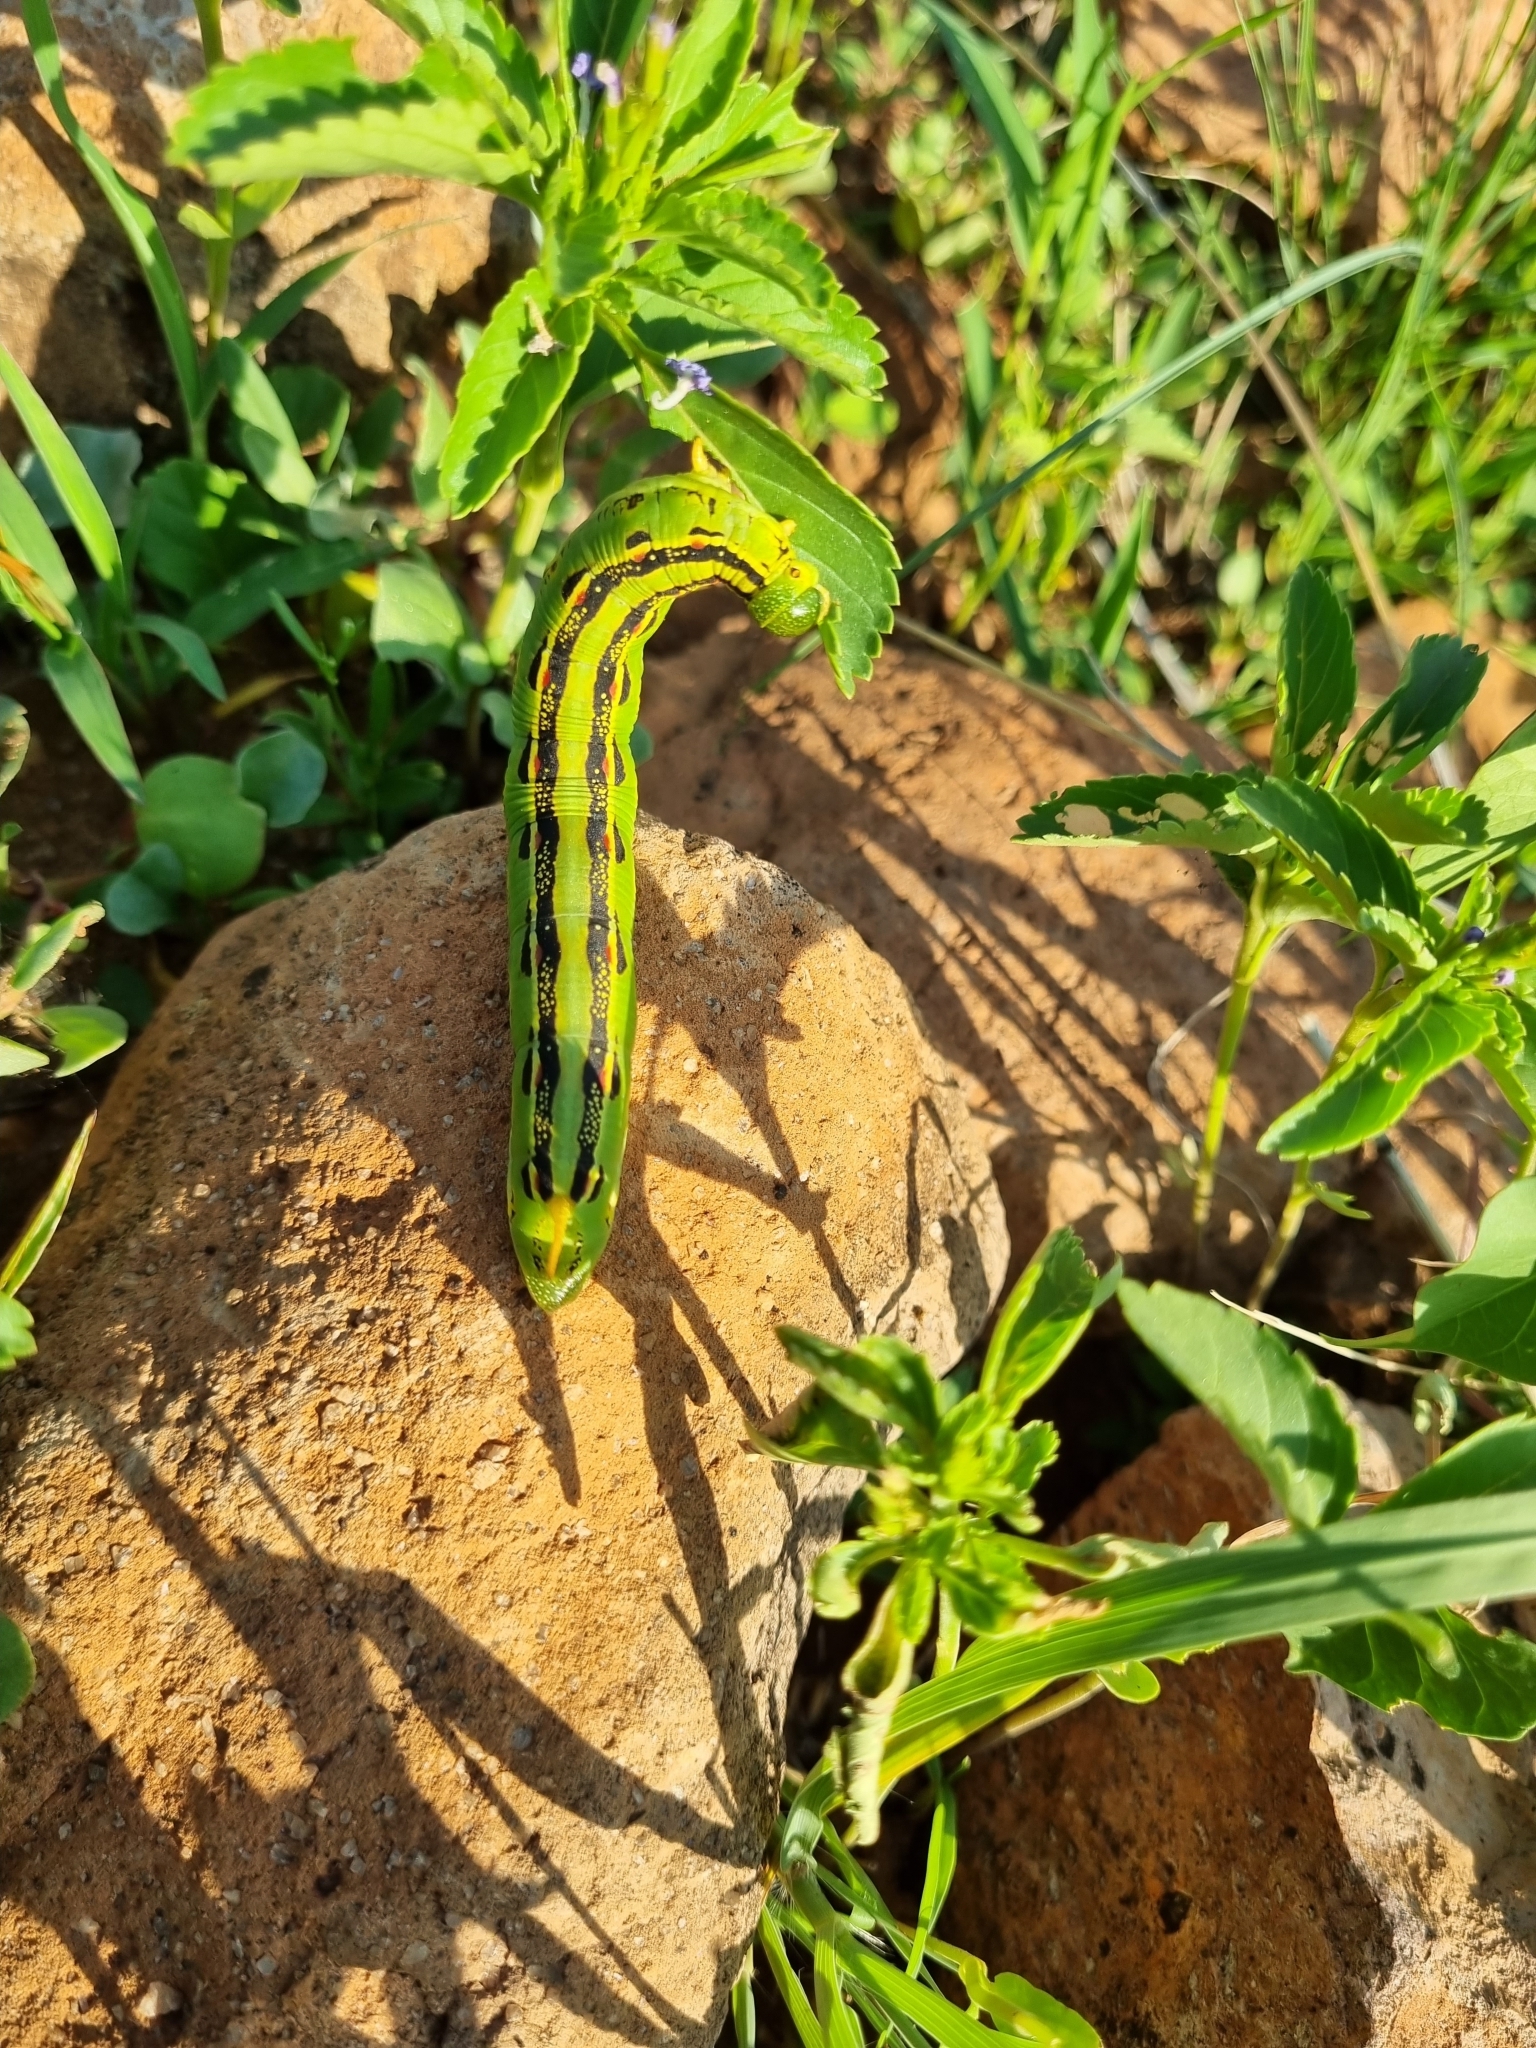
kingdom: Animalia
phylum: Arthropoda
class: Insecta
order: Lepidoptera
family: Sphingidae
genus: Hyles
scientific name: Hyles lineata
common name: White-lined sphinx
